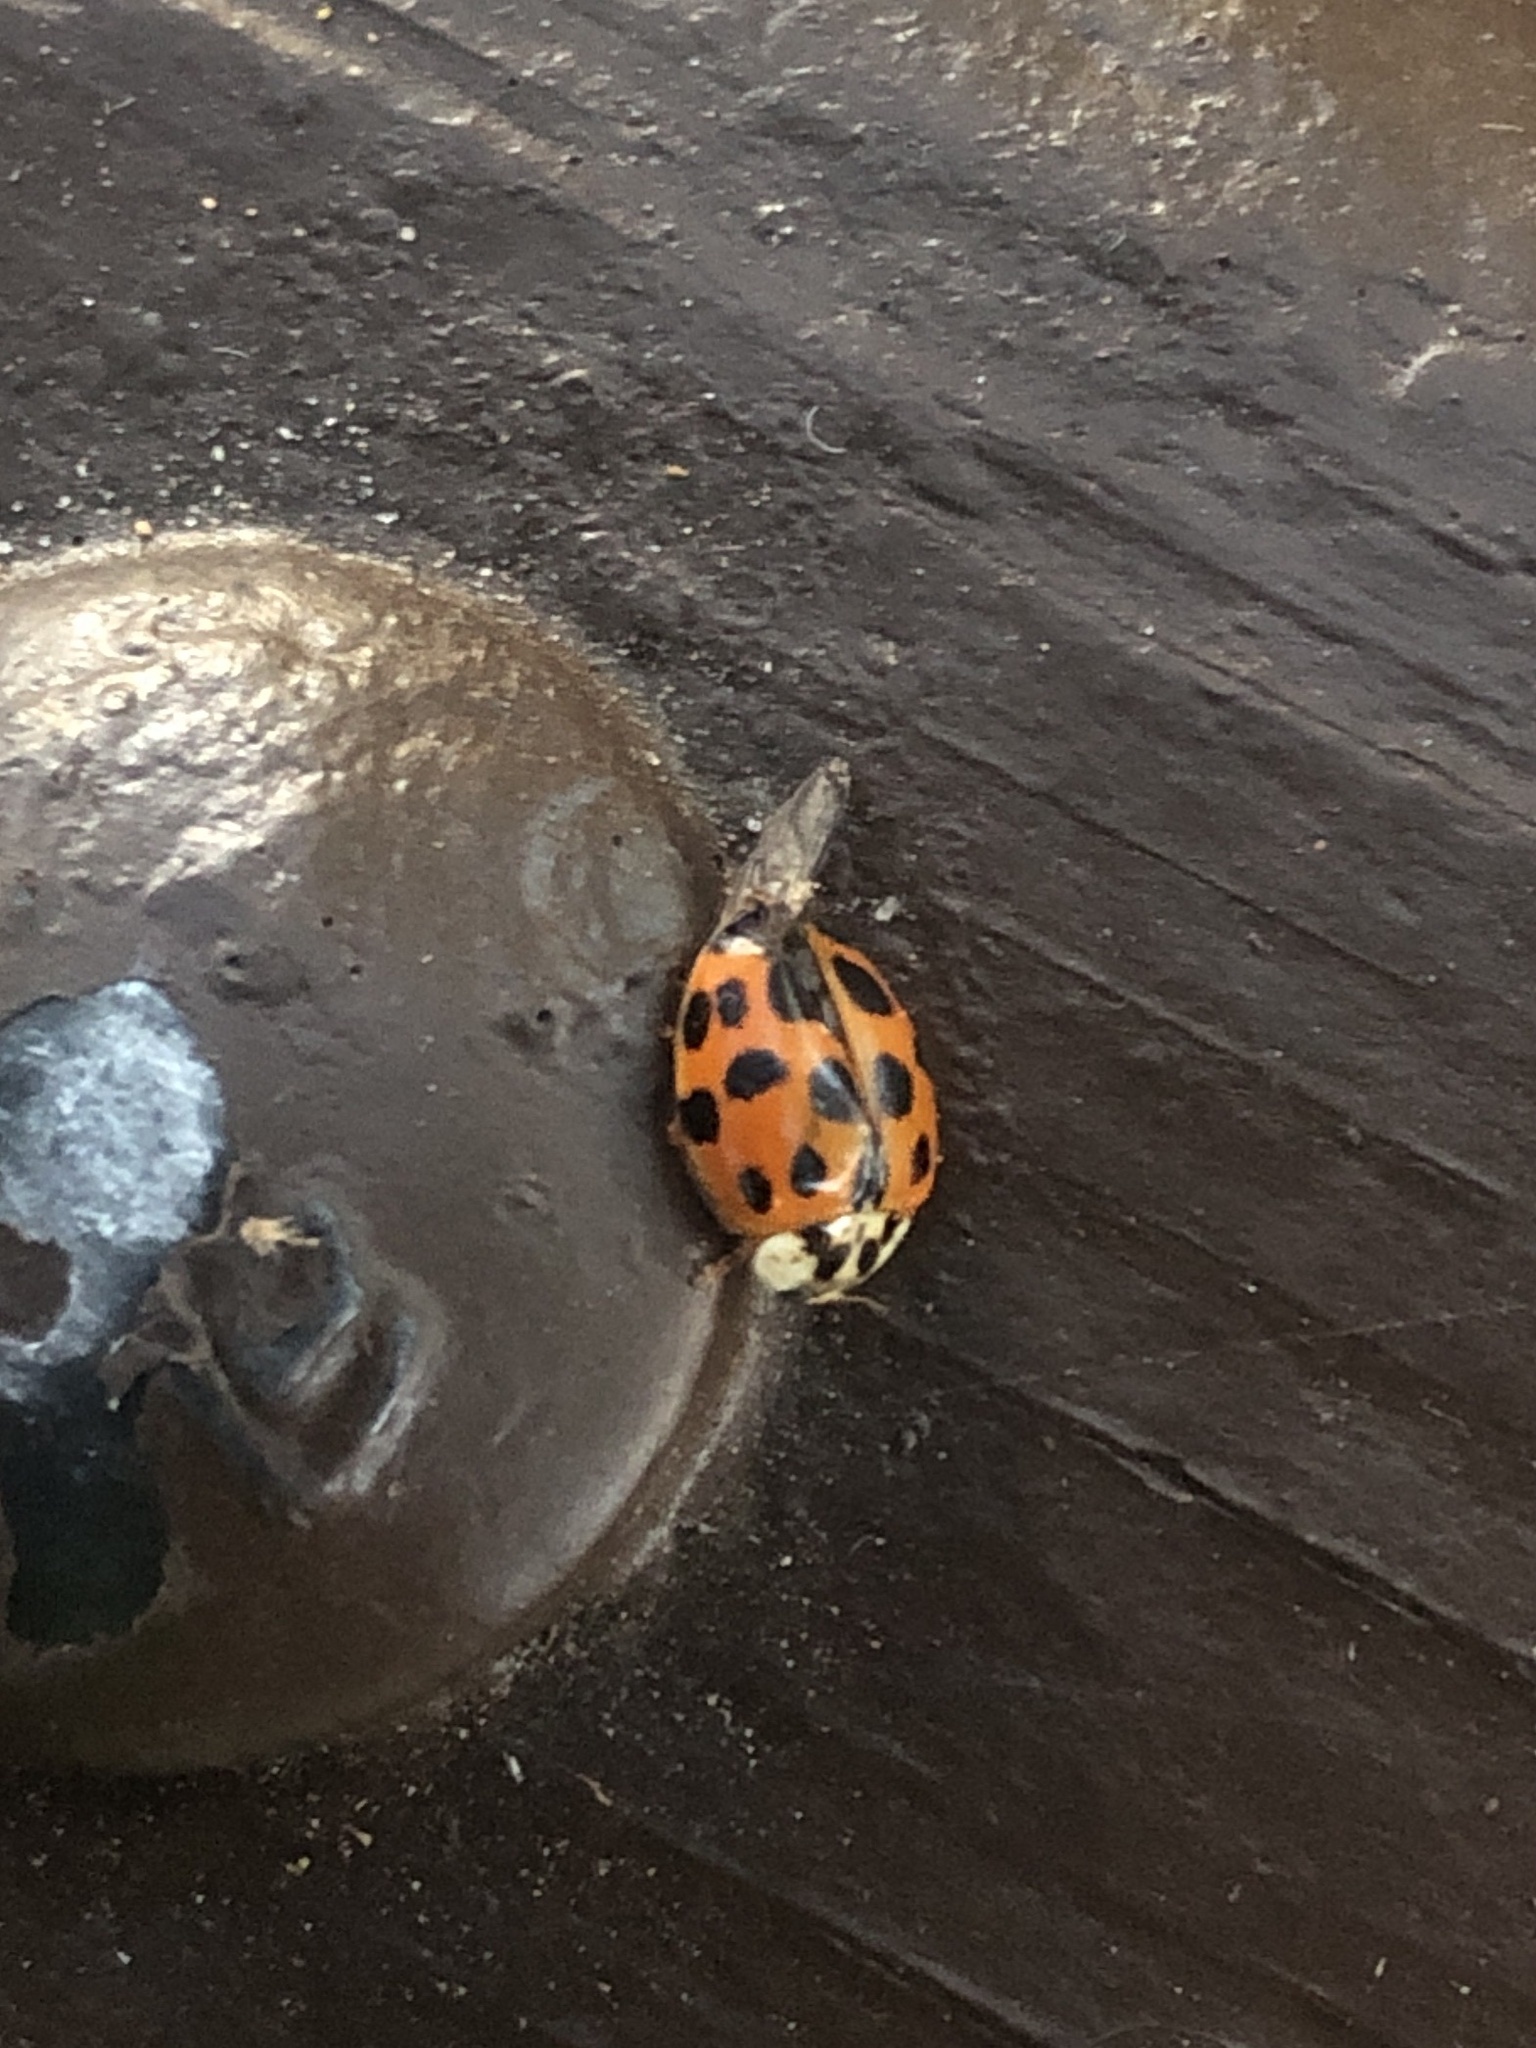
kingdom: Animalia
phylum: Arthropoda
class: Insecta
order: Coleoptera
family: Coccinellidae
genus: Harmonia
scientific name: Harmonia axyridis
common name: Harlequin ladybird
